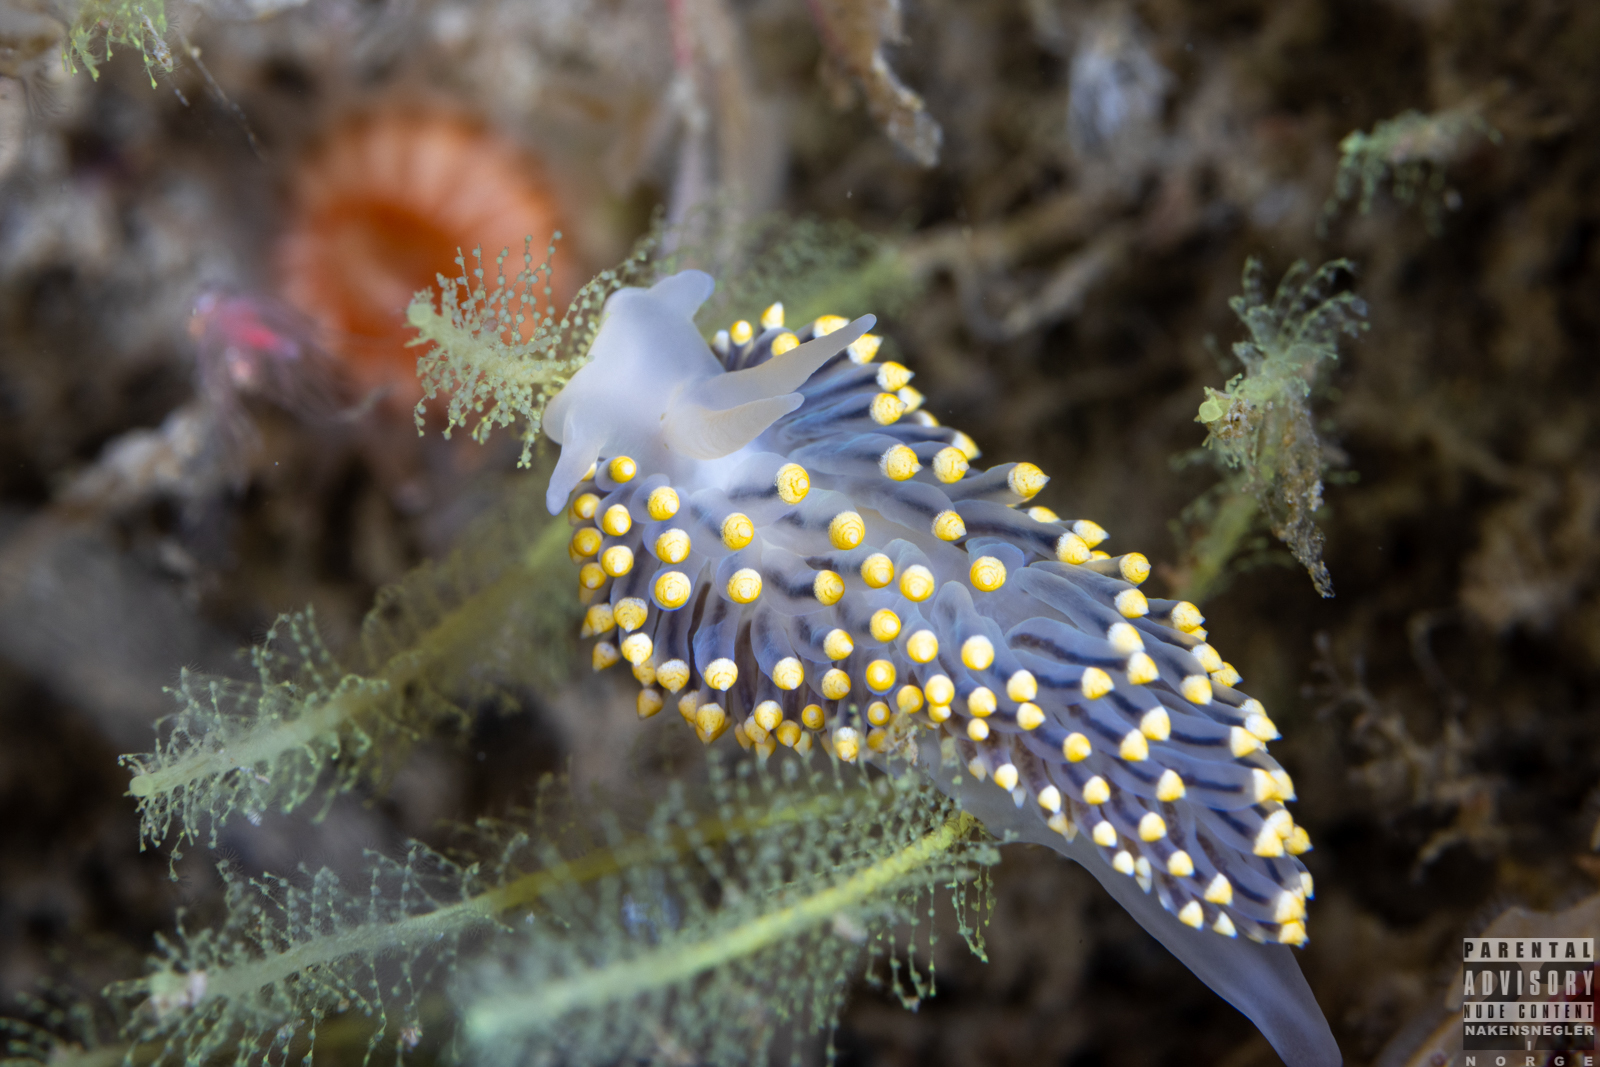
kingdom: Animalia
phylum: Mollusca
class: Gastropoda
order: Nudibranchia
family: Eubranchidae
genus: Eubranchus
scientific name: Eubranchus tricolor
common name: Painted balloon aeolis
